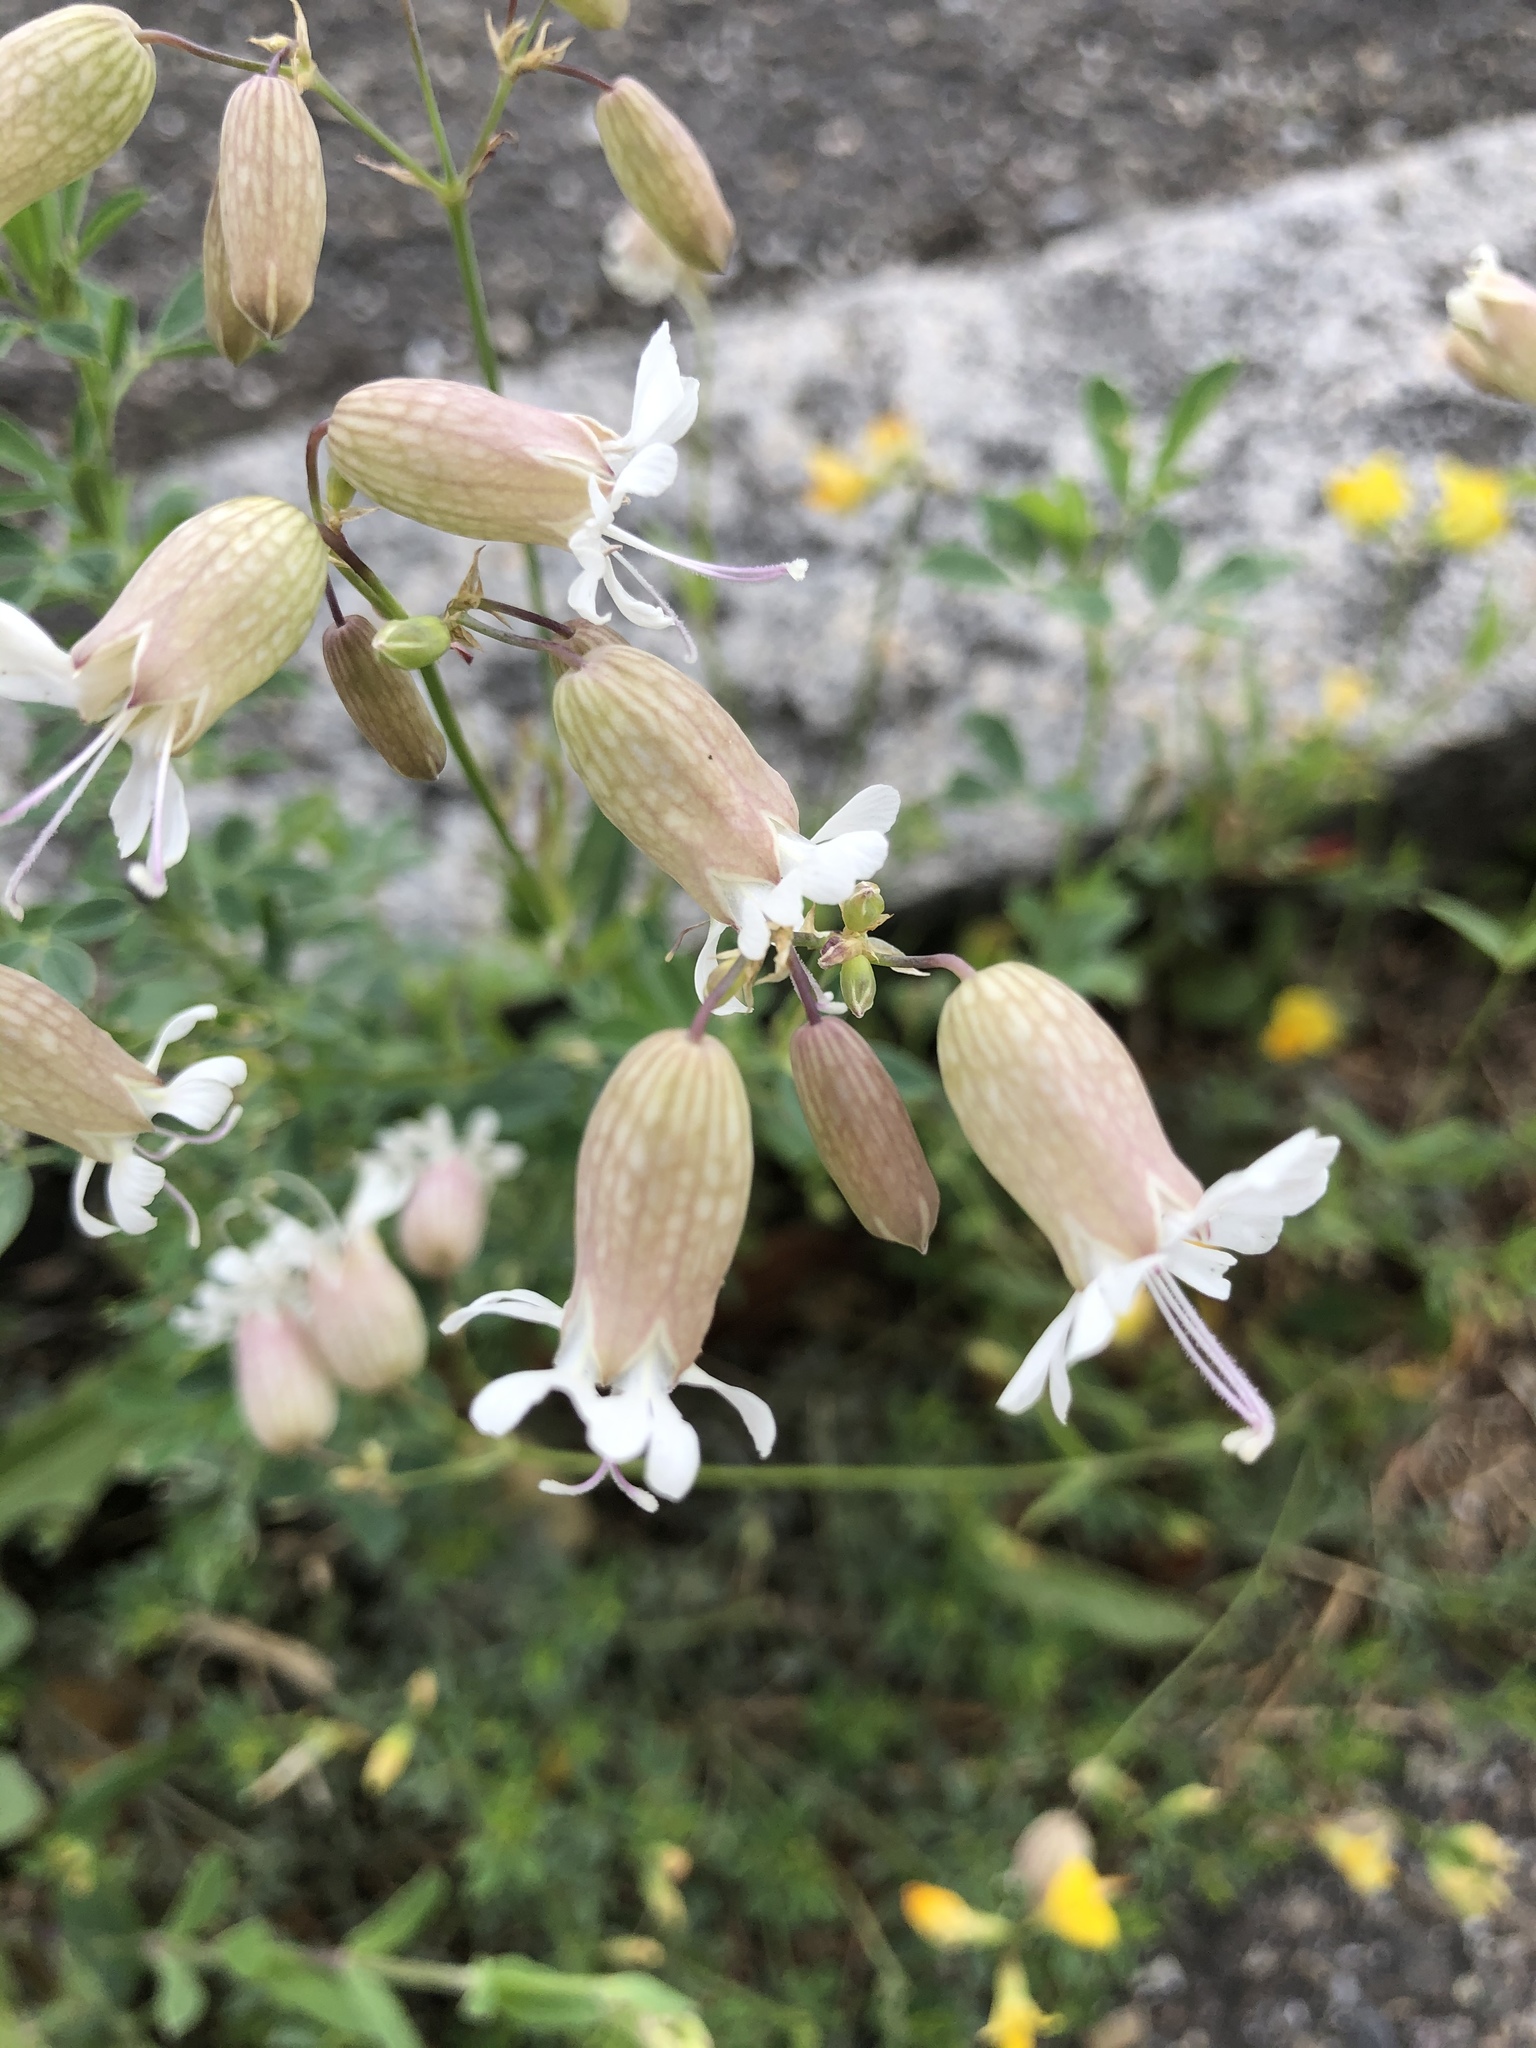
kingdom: Plantae
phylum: Tracheophyta
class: Magnoliopsida
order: Caryophyllales
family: Caryophyllaceae
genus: Silene
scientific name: Silene vulgaris
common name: Bladder campion
